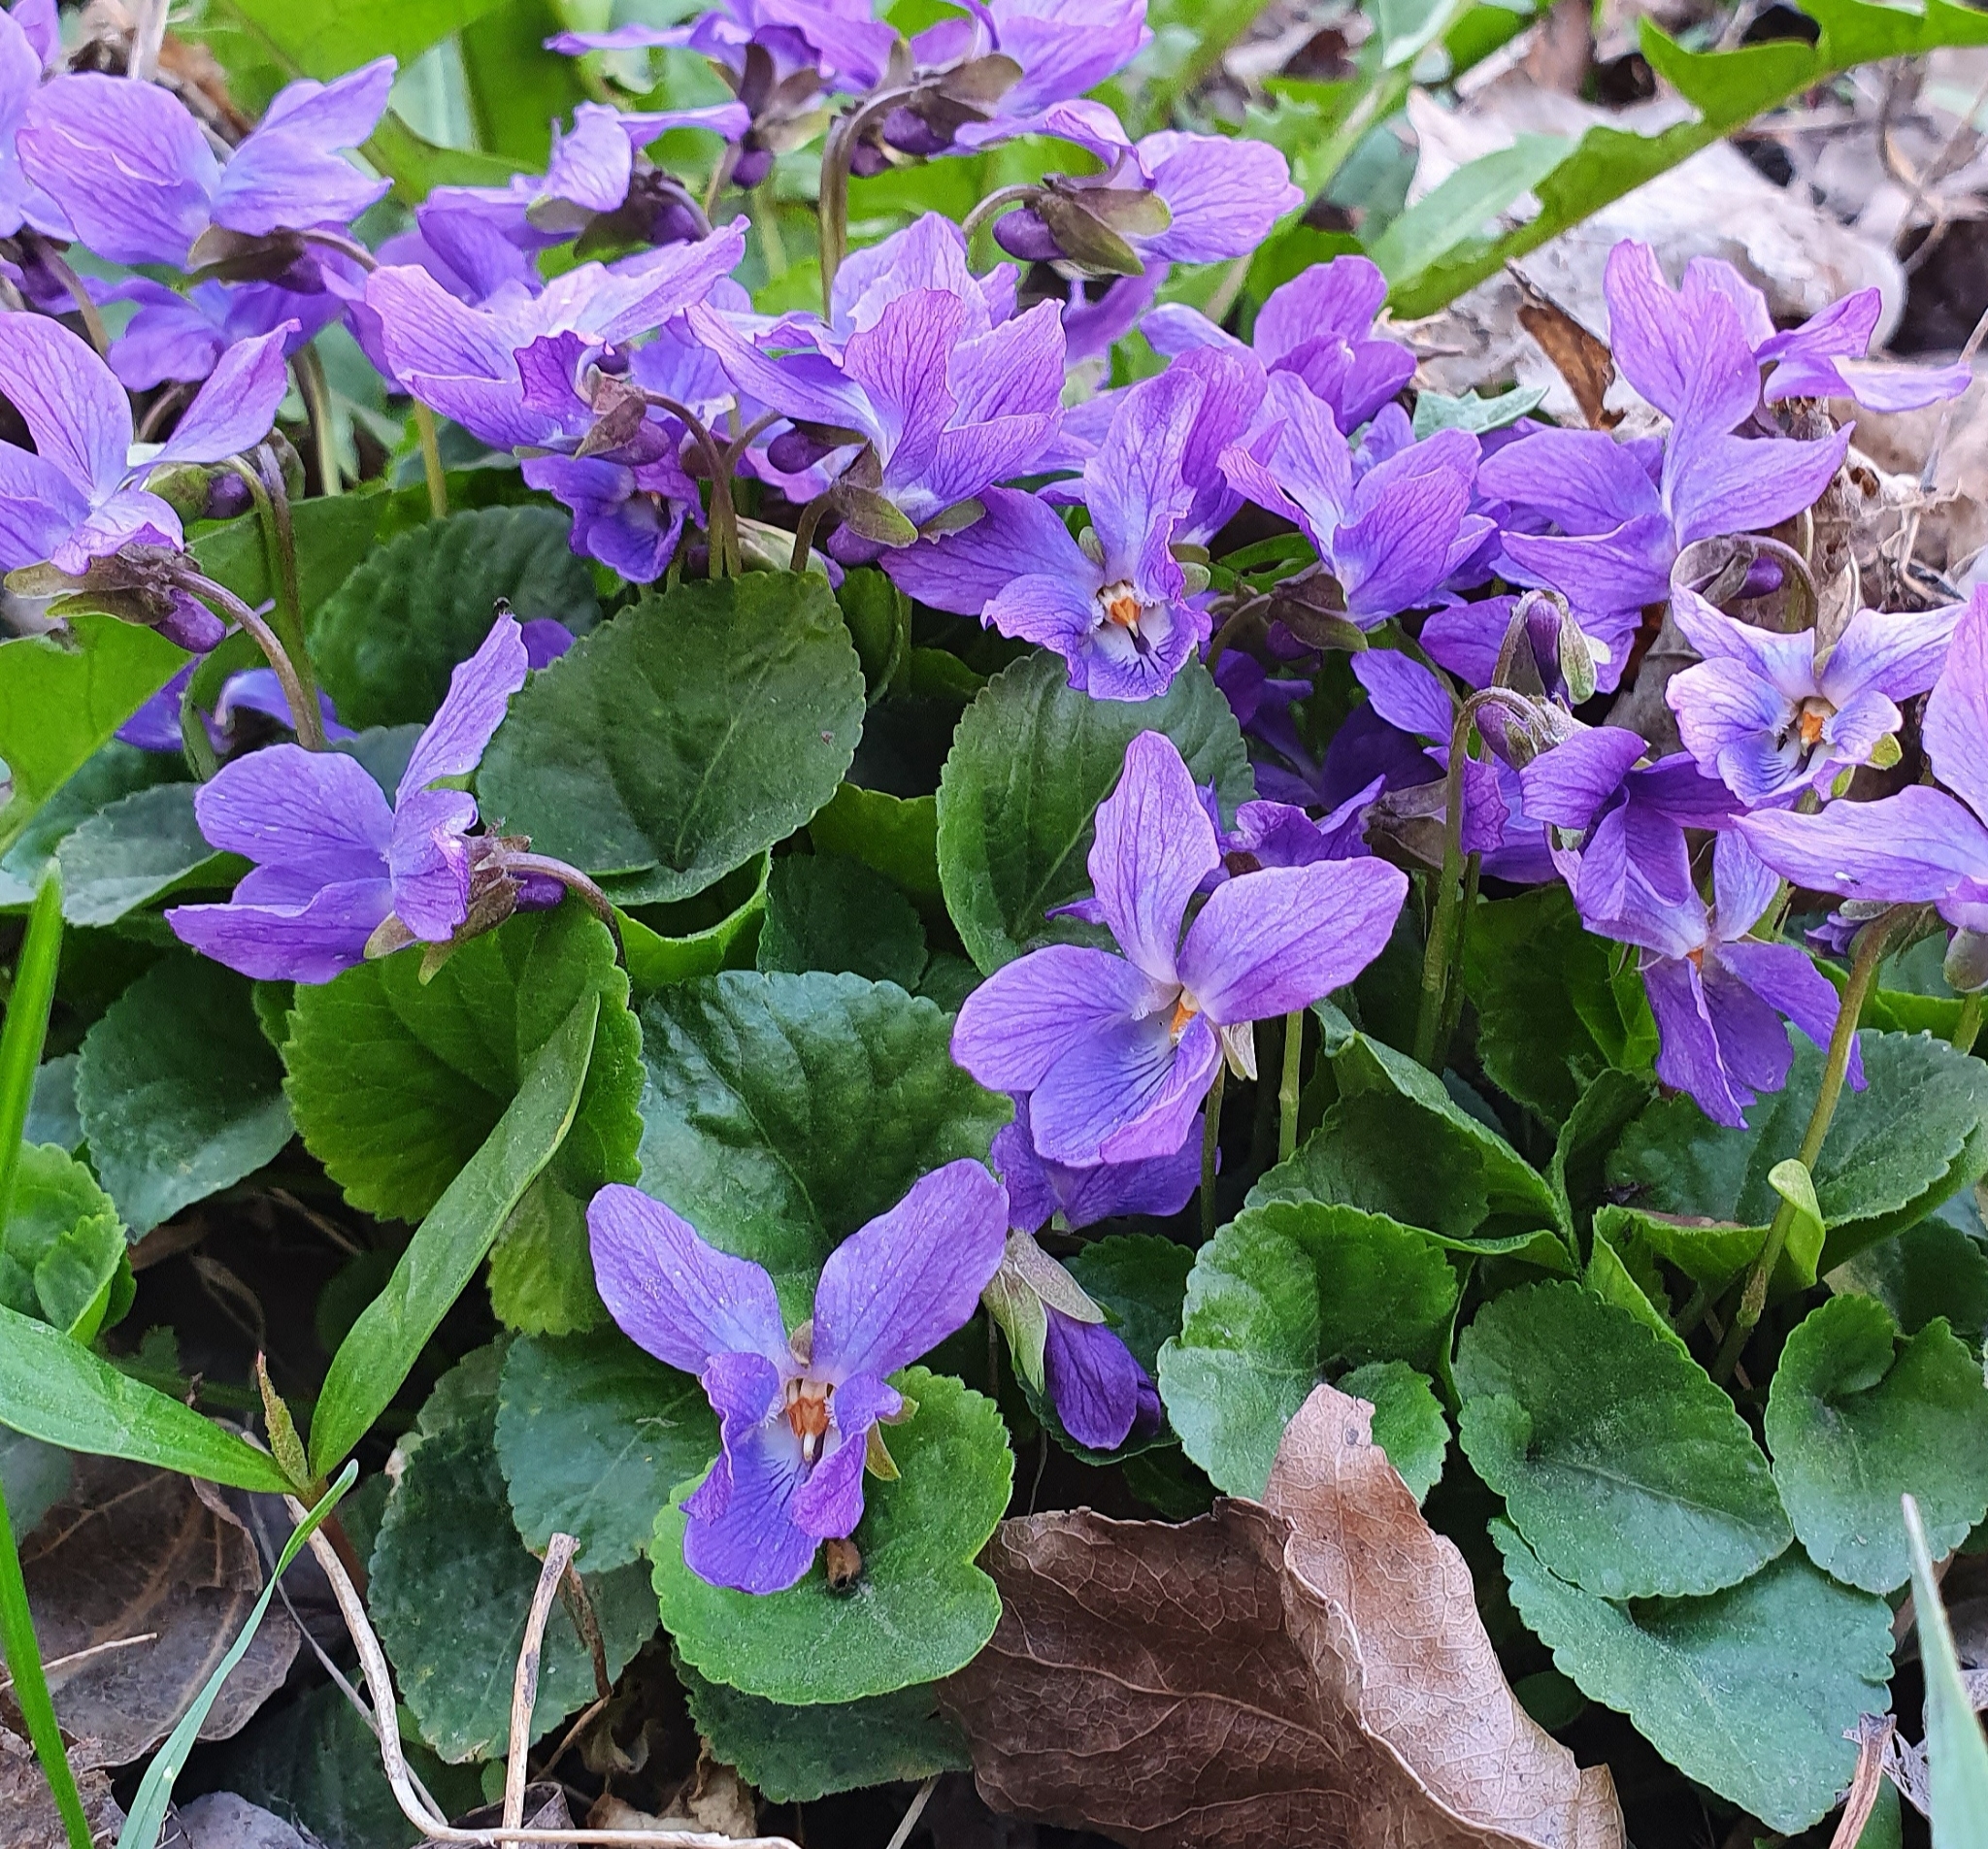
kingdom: Plantae
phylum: Tracheophyta
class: Magnoliopsida
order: Malpighiales
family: Violaceae
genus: Viola
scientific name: Viola odorata
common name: Sweet violet
